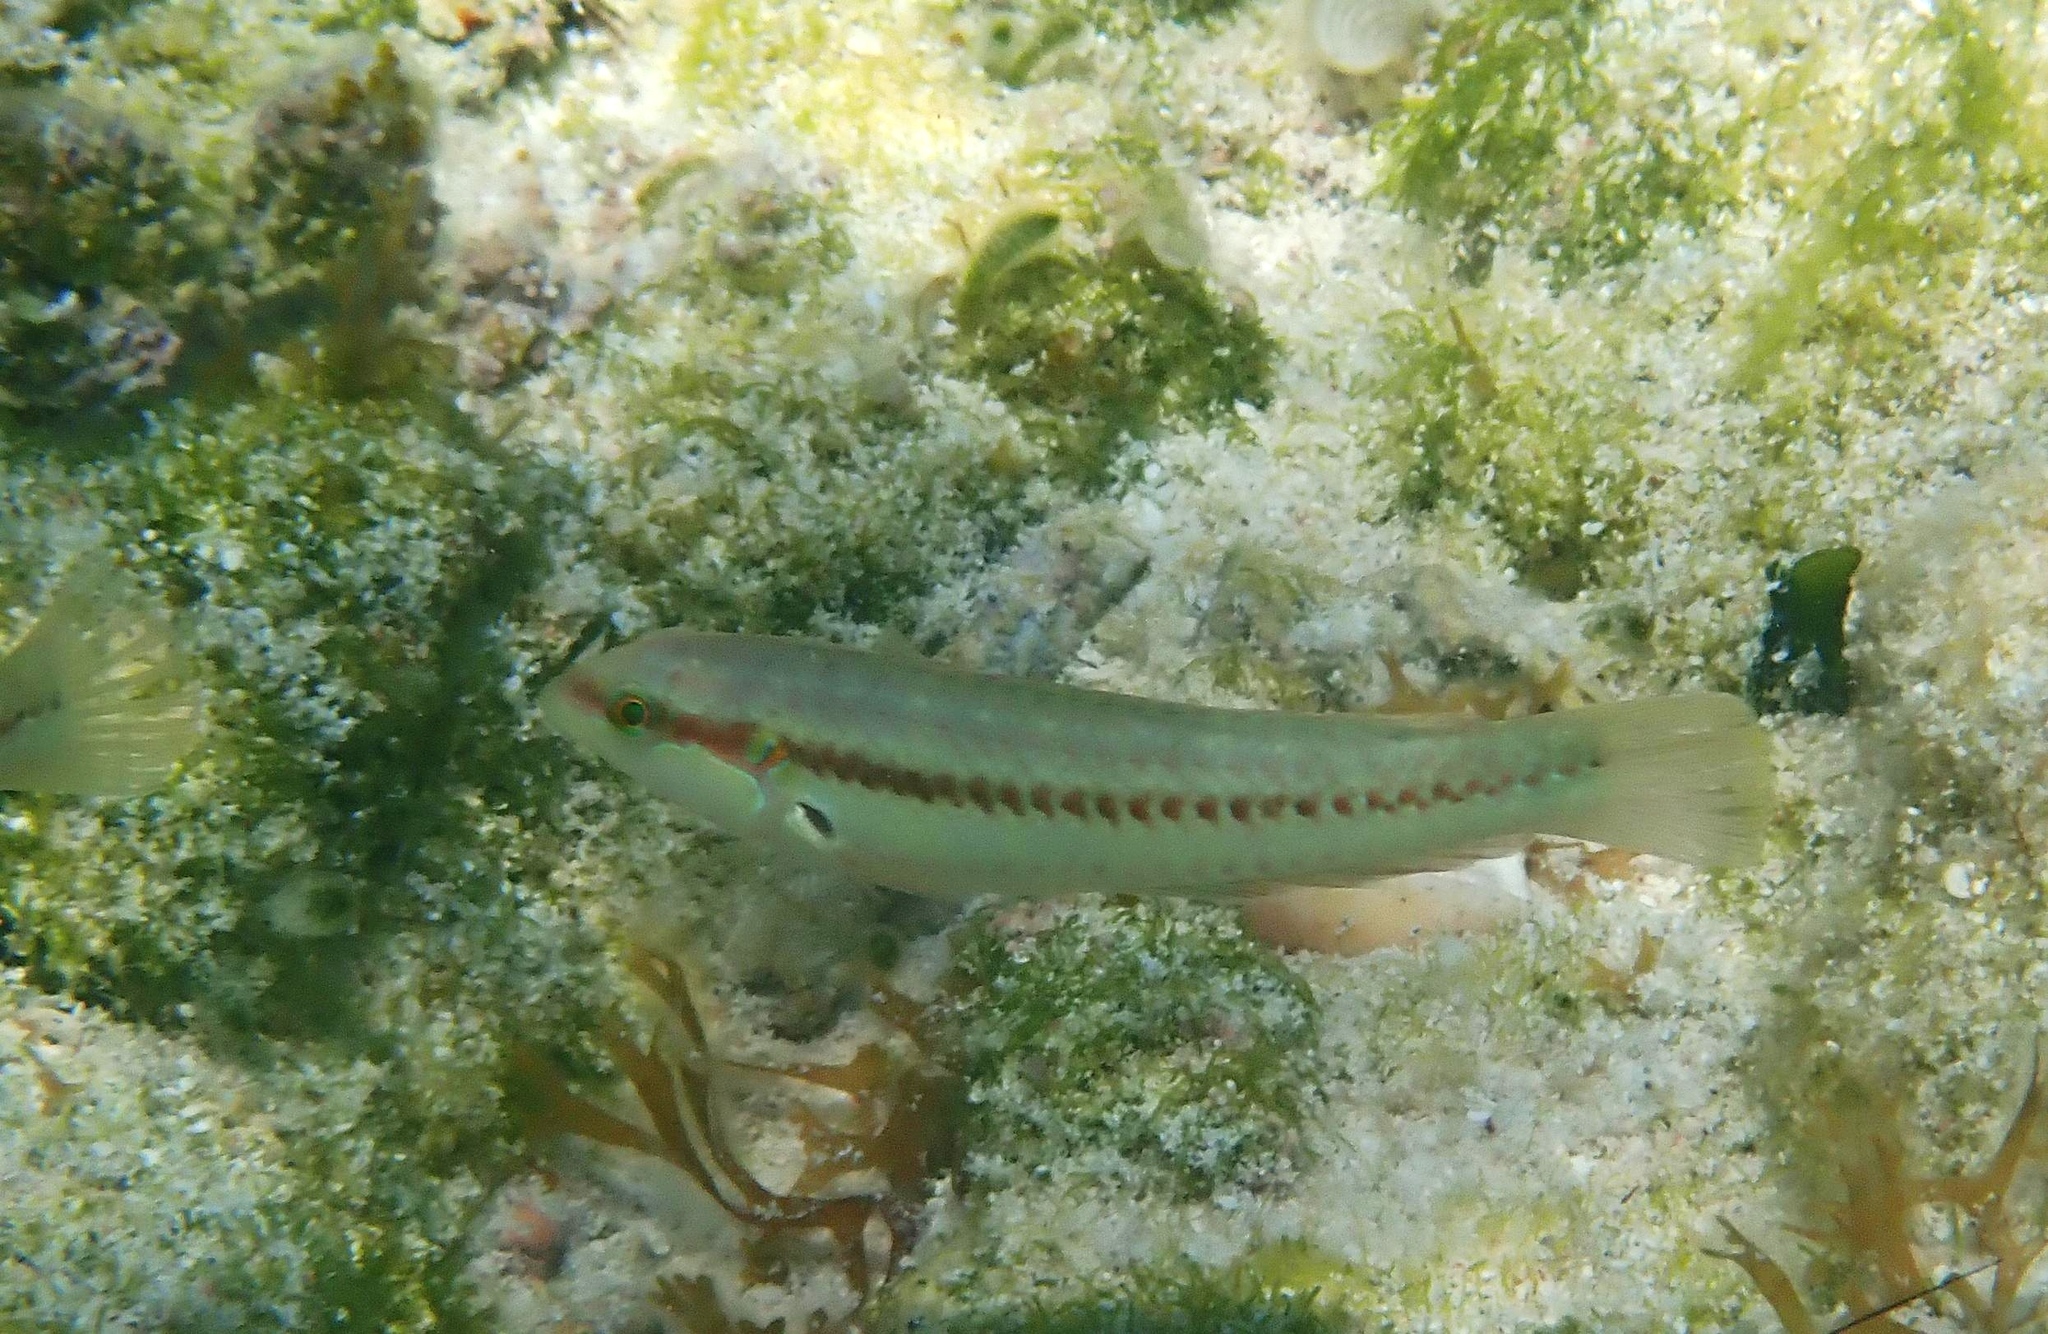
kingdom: Animalia
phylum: Chordata
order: Perciformes
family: Labridae
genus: Halichoeres
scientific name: Halichoeres bivittatus
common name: Slippery dick
